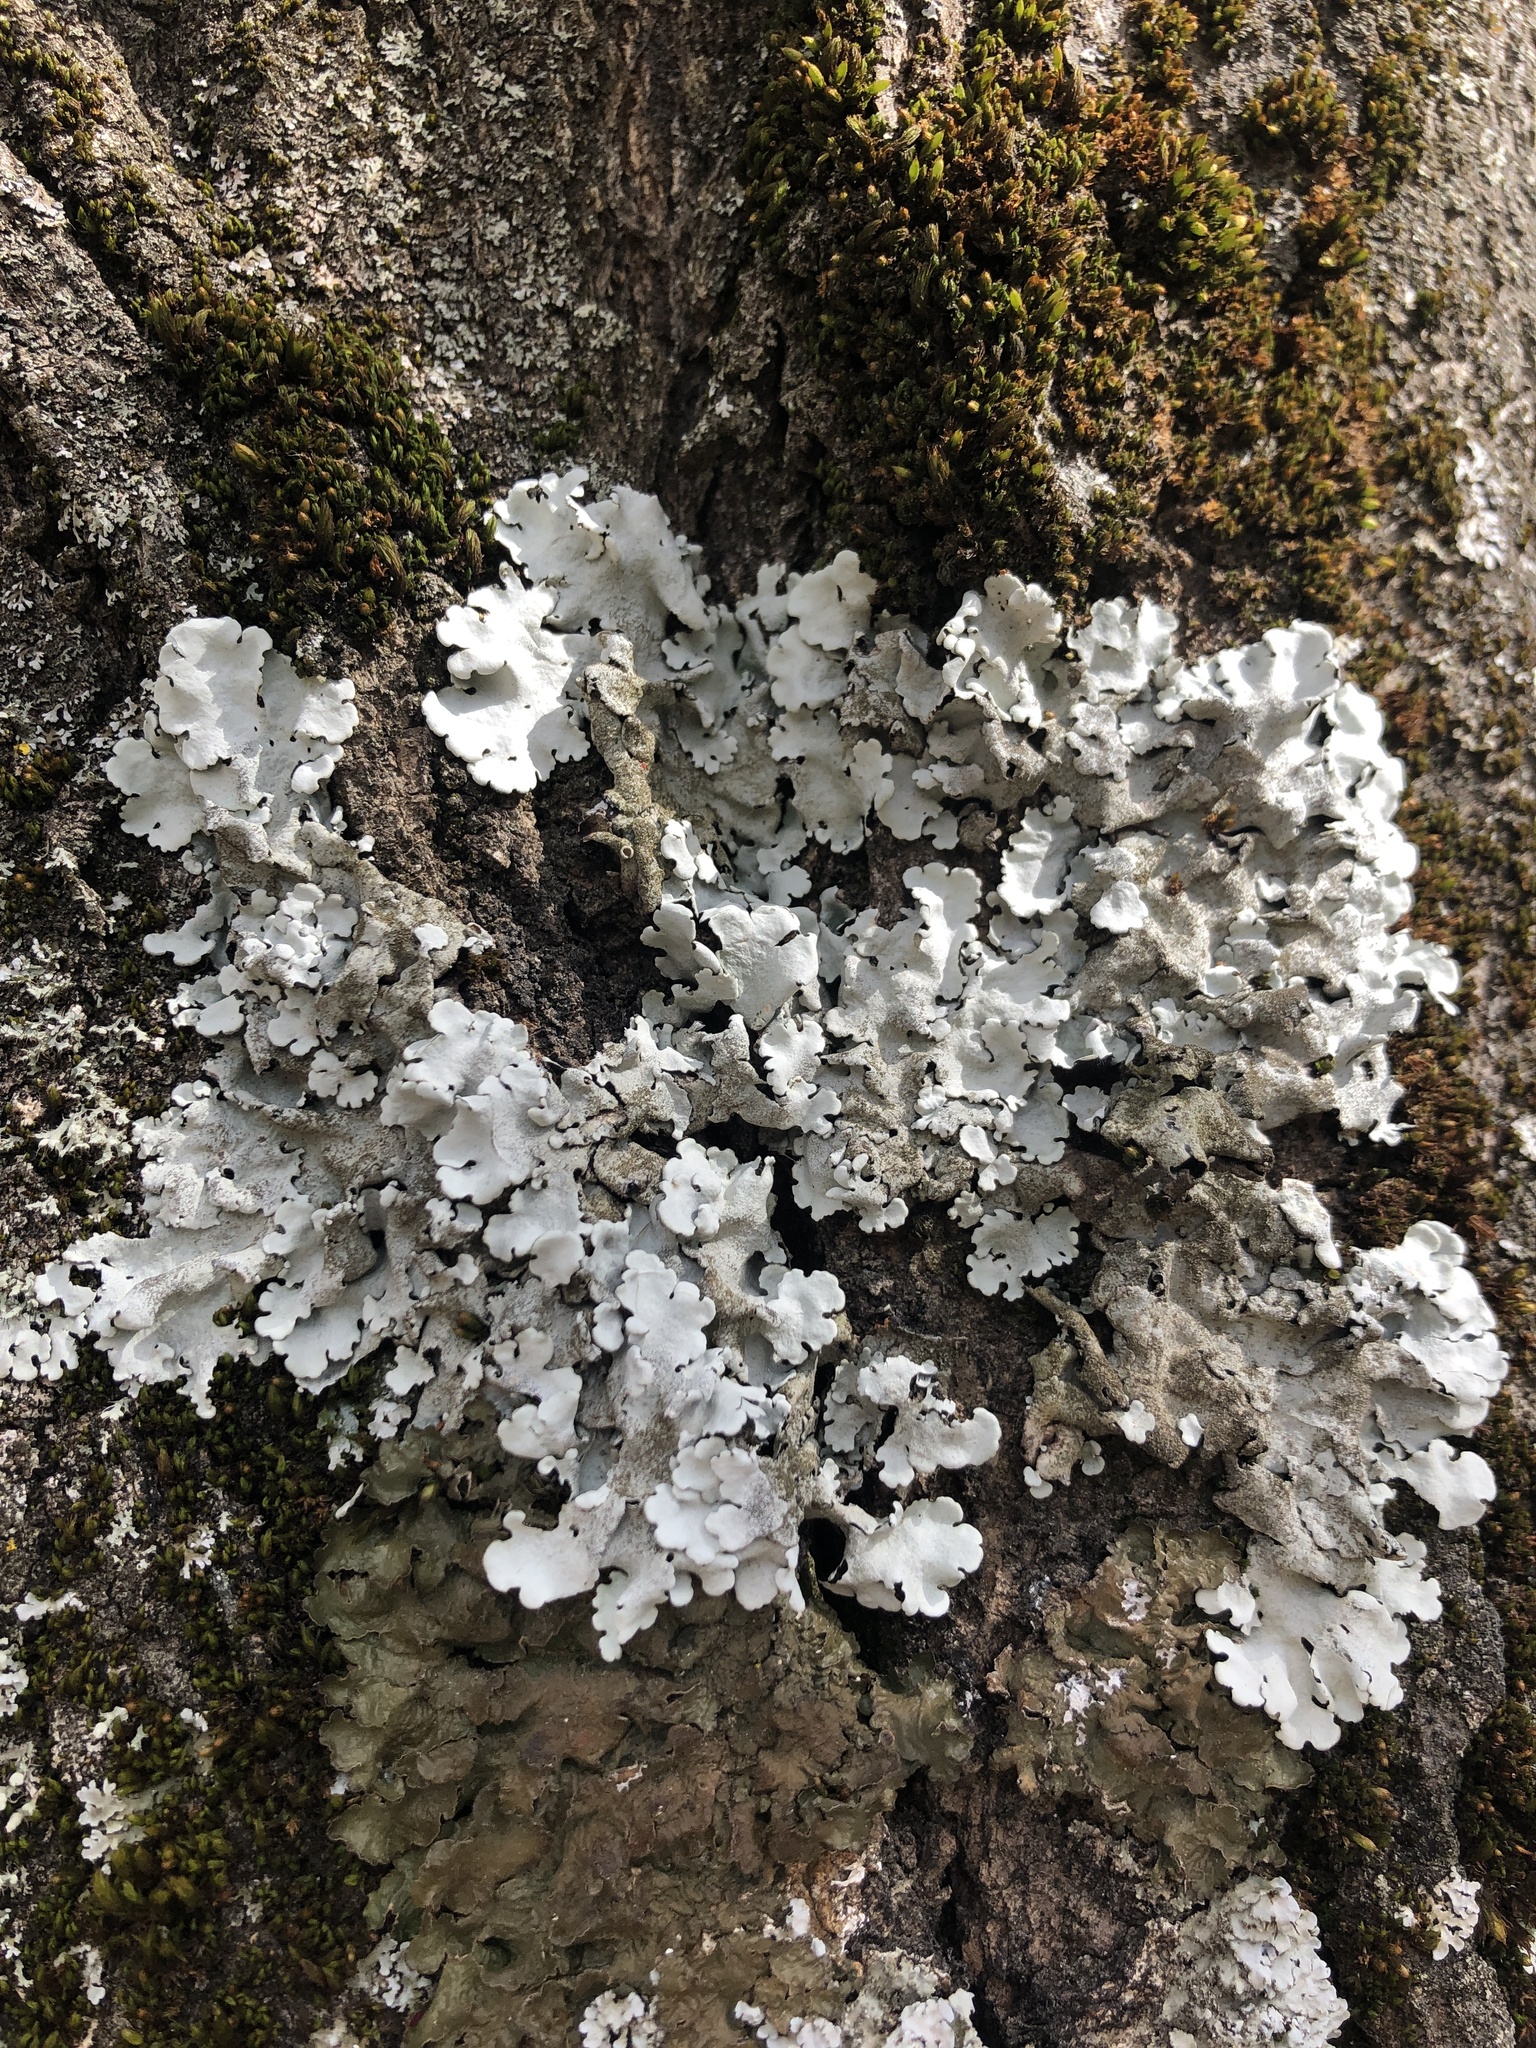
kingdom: Fungi
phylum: Ascomycota
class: Lecanoromycetes
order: Lecanorales
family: Parmeliaceae
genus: Parmelina
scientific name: Parmelina tiliacea
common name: Linden shield lichen
